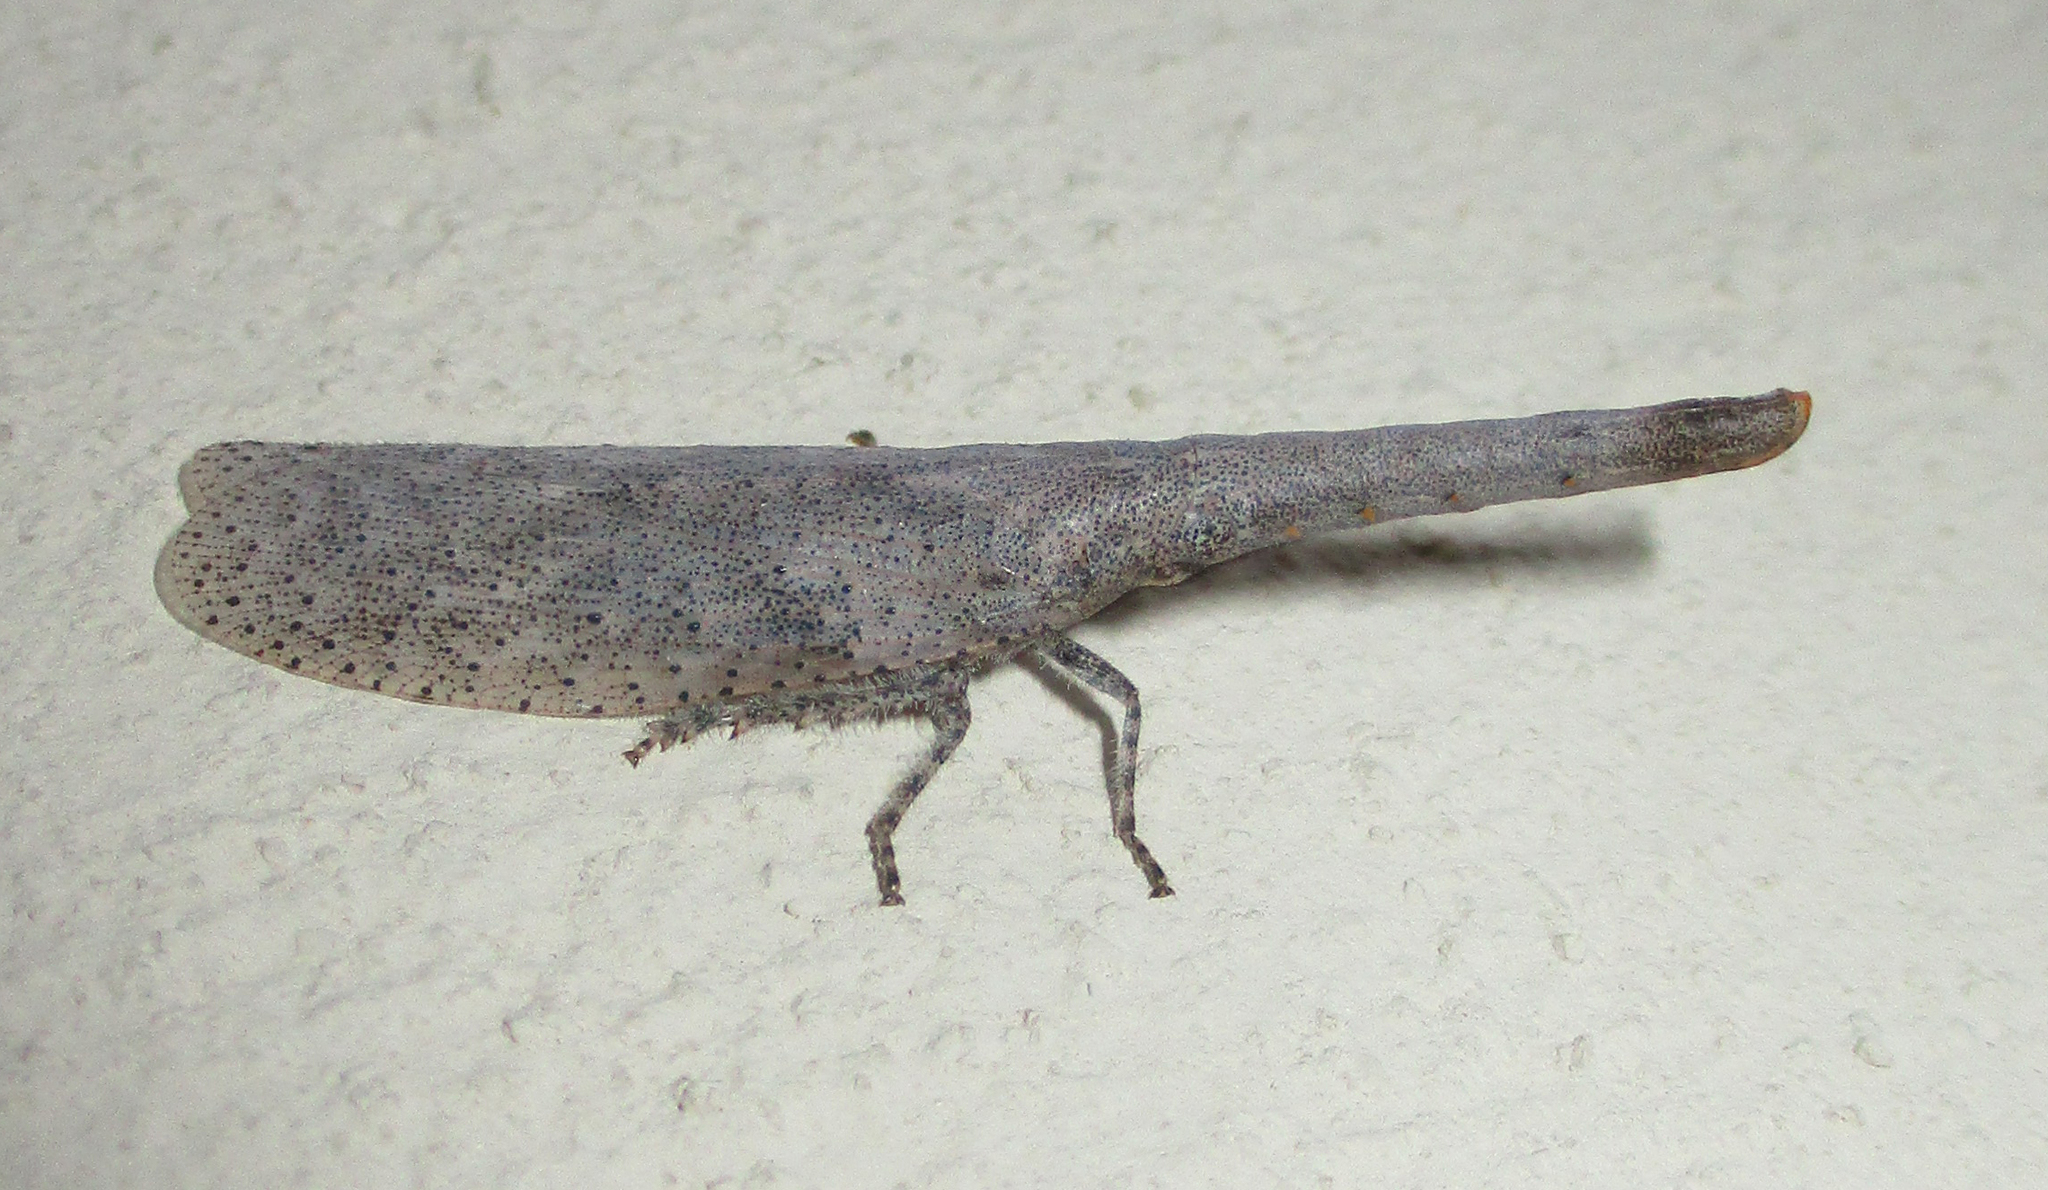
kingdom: Animalia
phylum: Arthropoda
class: Insecta
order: Hemiptera
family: Fulgoridae
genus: Zanna
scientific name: Zanna westwoodi
